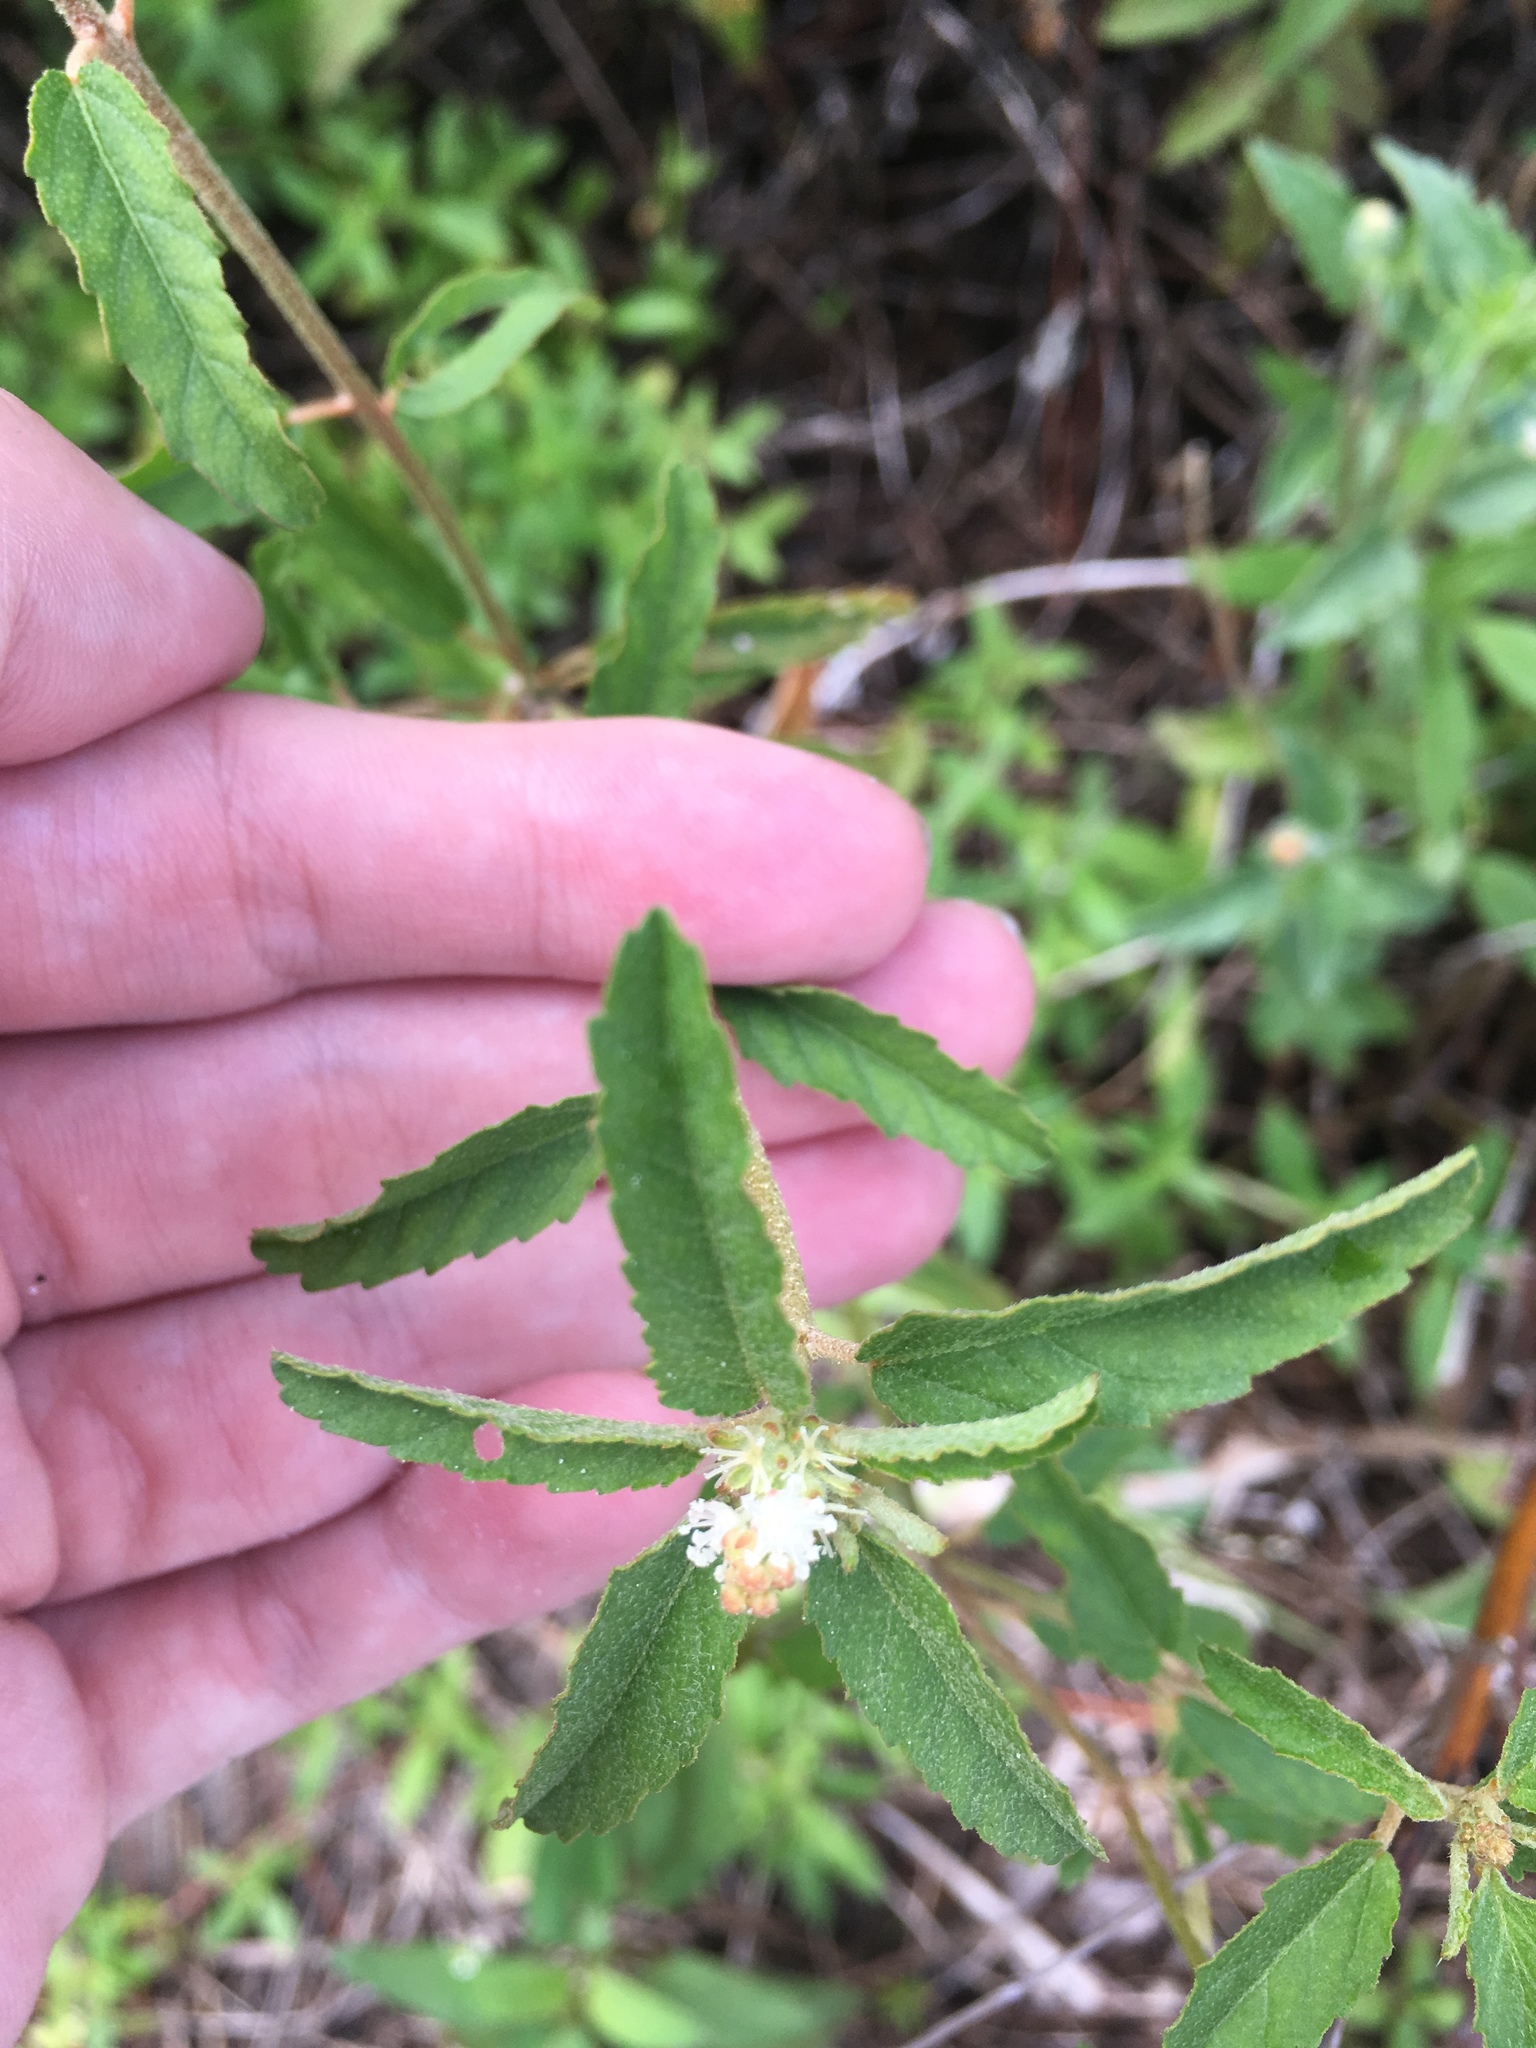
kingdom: Plantae
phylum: Tracheophyta
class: Magnoliopsida
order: Malpighiales
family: Euphorbiaceae
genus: Croton
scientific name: Croton glandulosus
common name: Tropic croton
